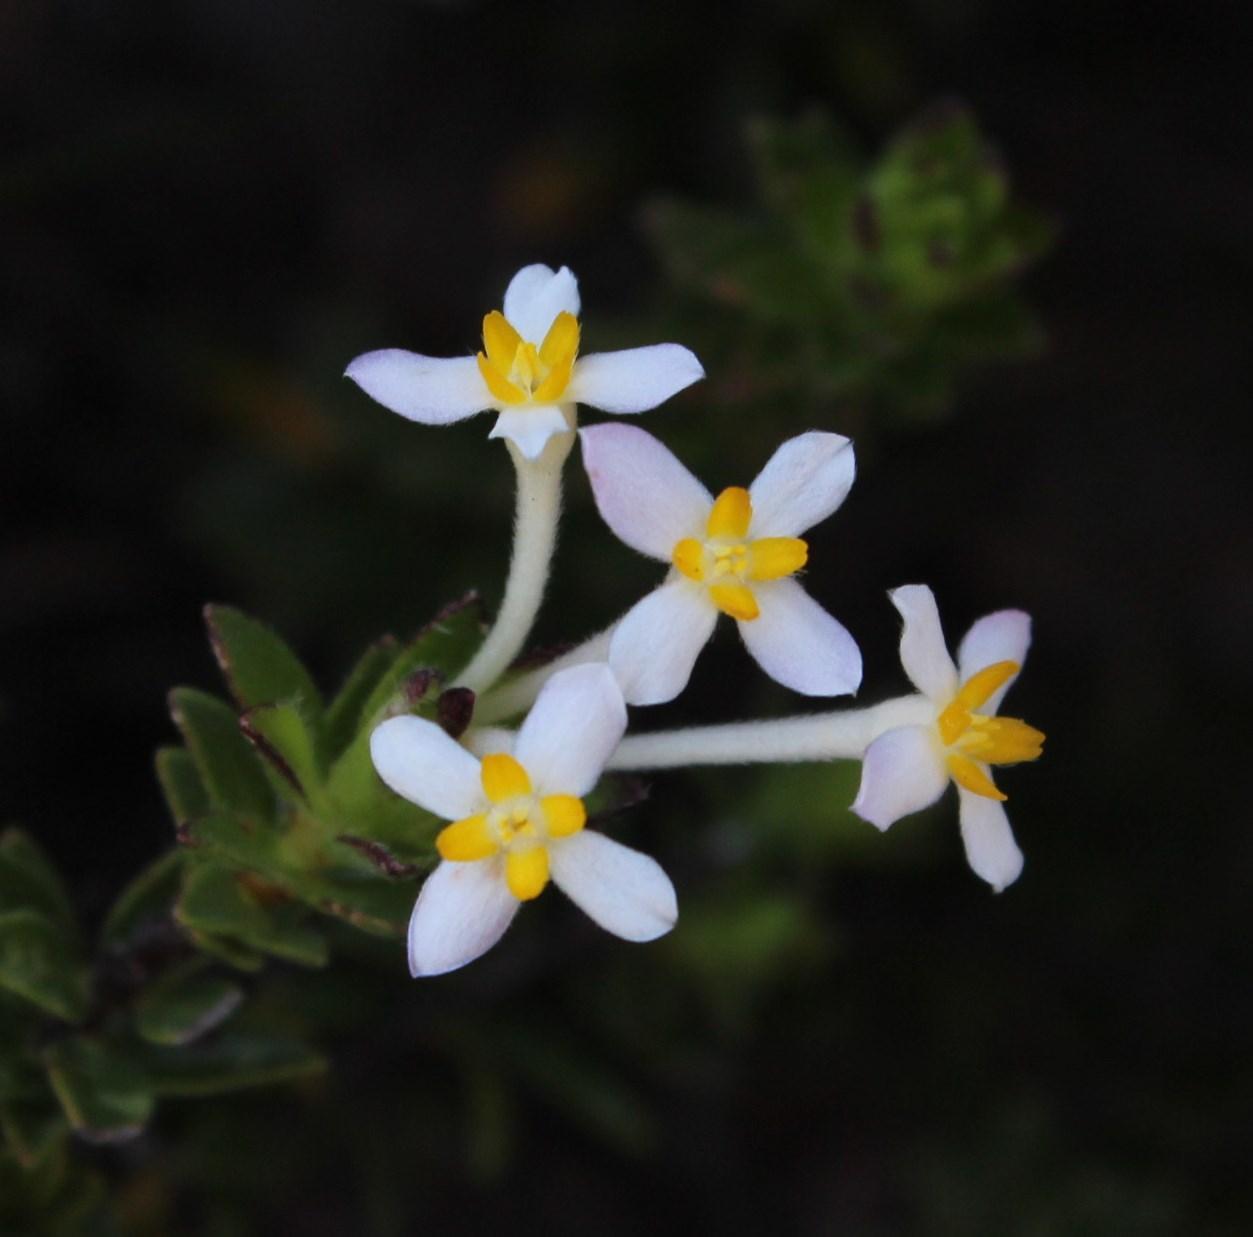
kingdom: Plantae
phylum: Tracheophyta
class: Magnoliopsida
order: Malvales
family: Thymelaeaceae
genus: Gnidia
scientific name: Gnidia tomentosa
